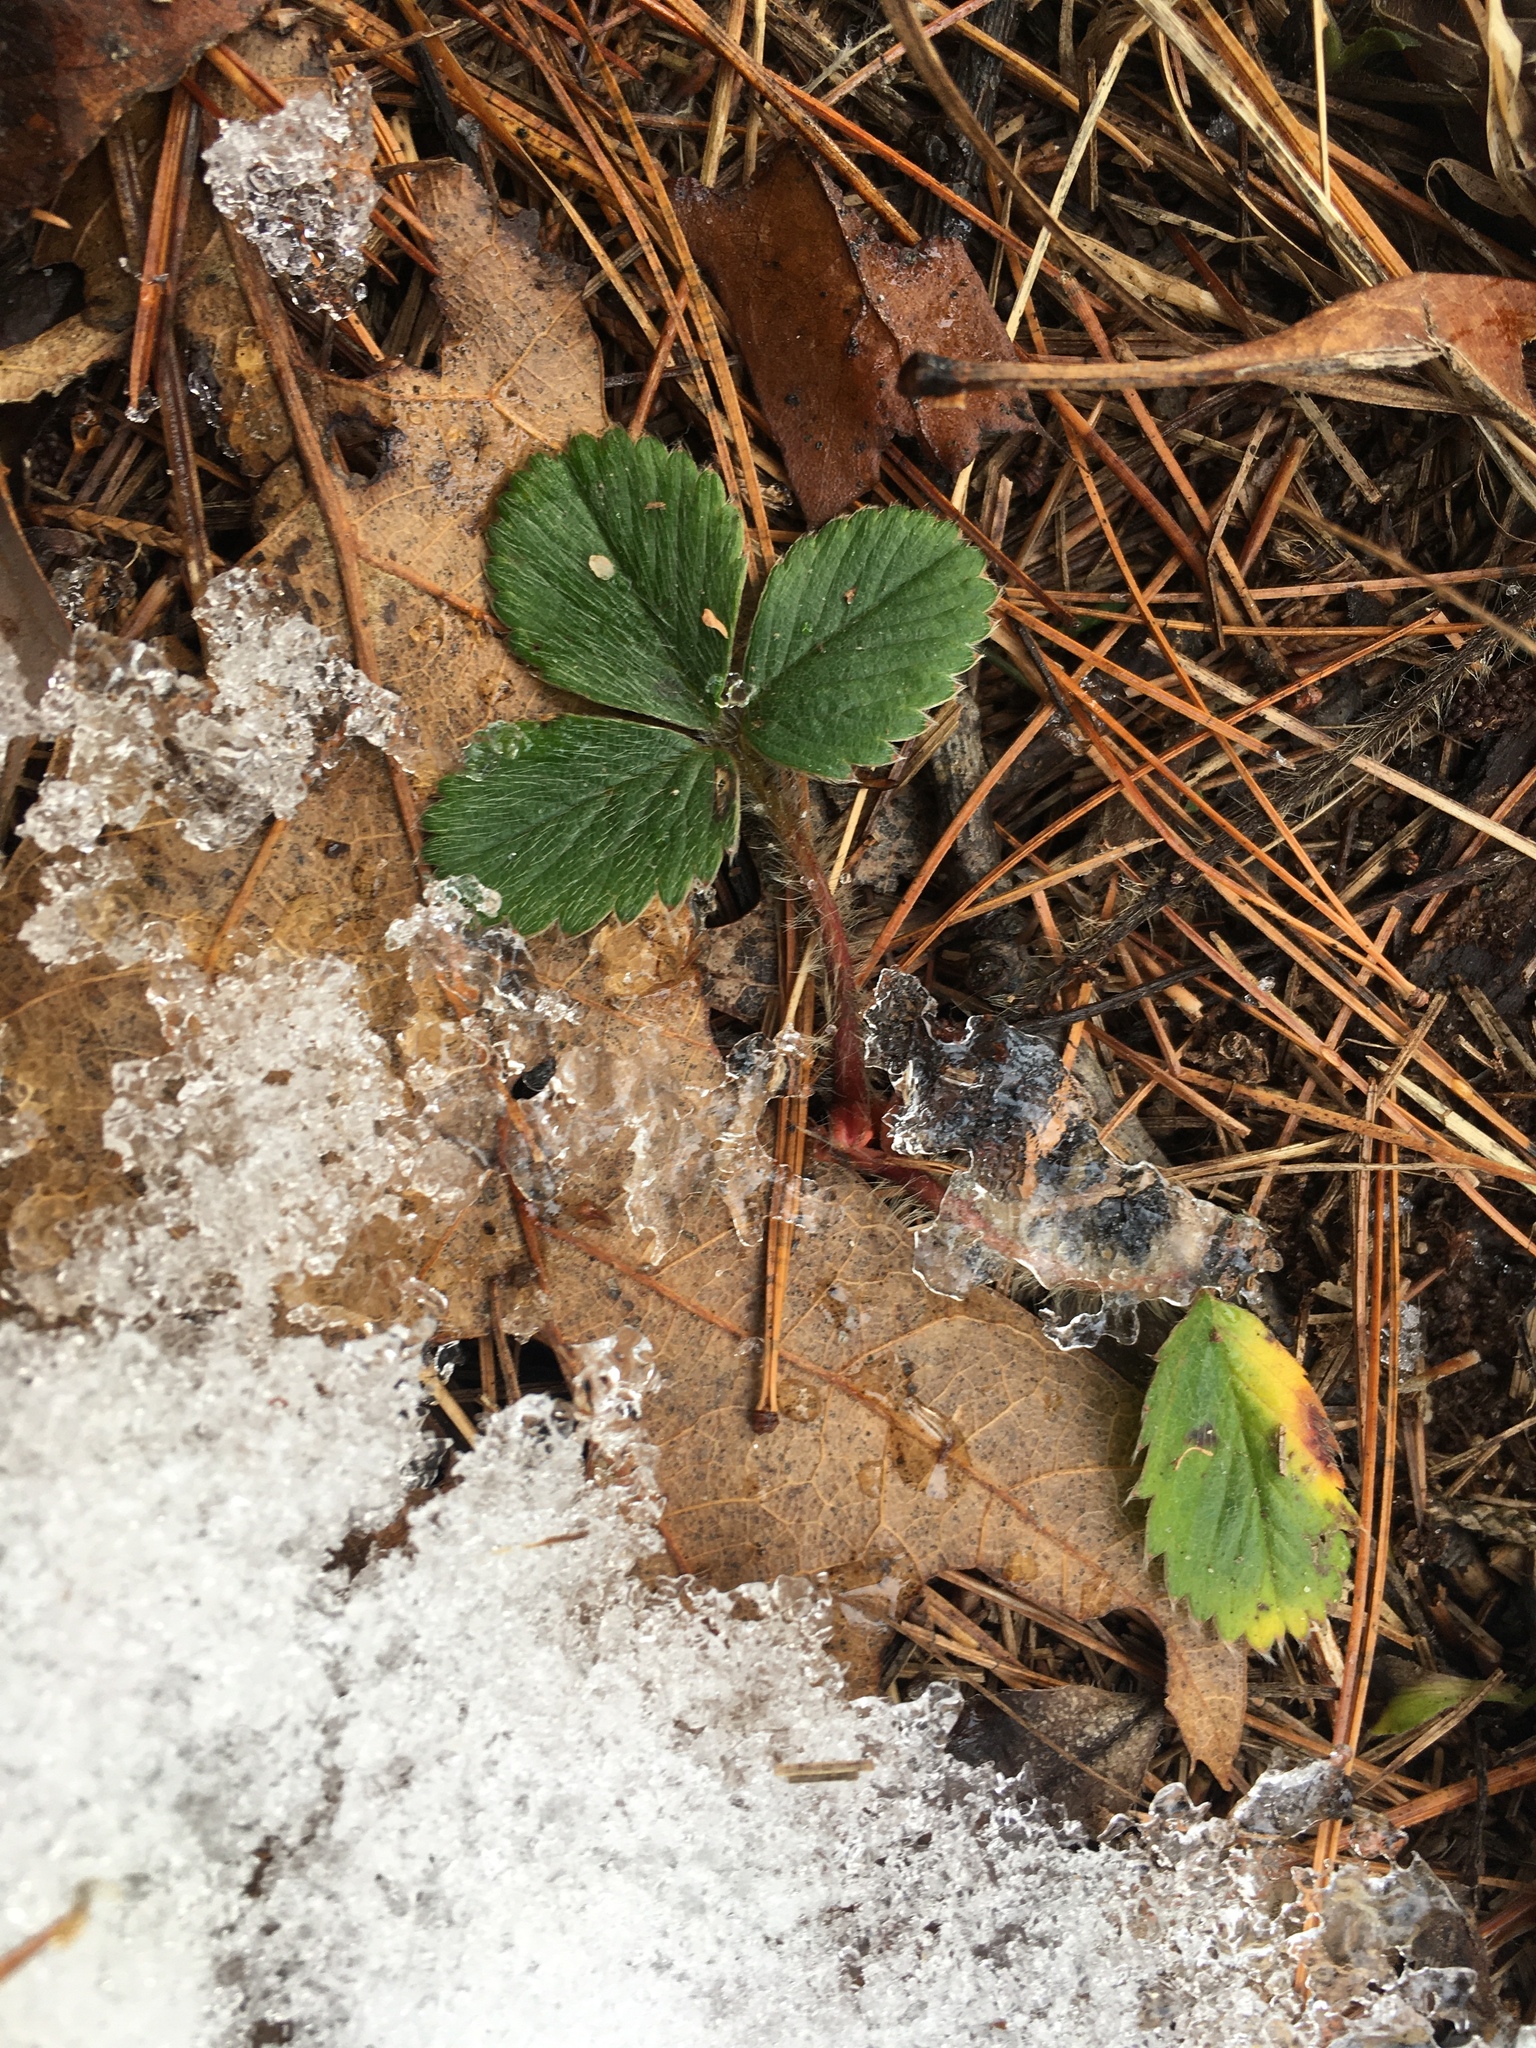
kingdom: Plantae
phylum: Tracheophyta
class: Magnoliopsida
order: Rosales
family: Rosaceae
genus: Fragaria
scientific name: Fragaria virginiana
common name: Thickleaved wild strawberry
